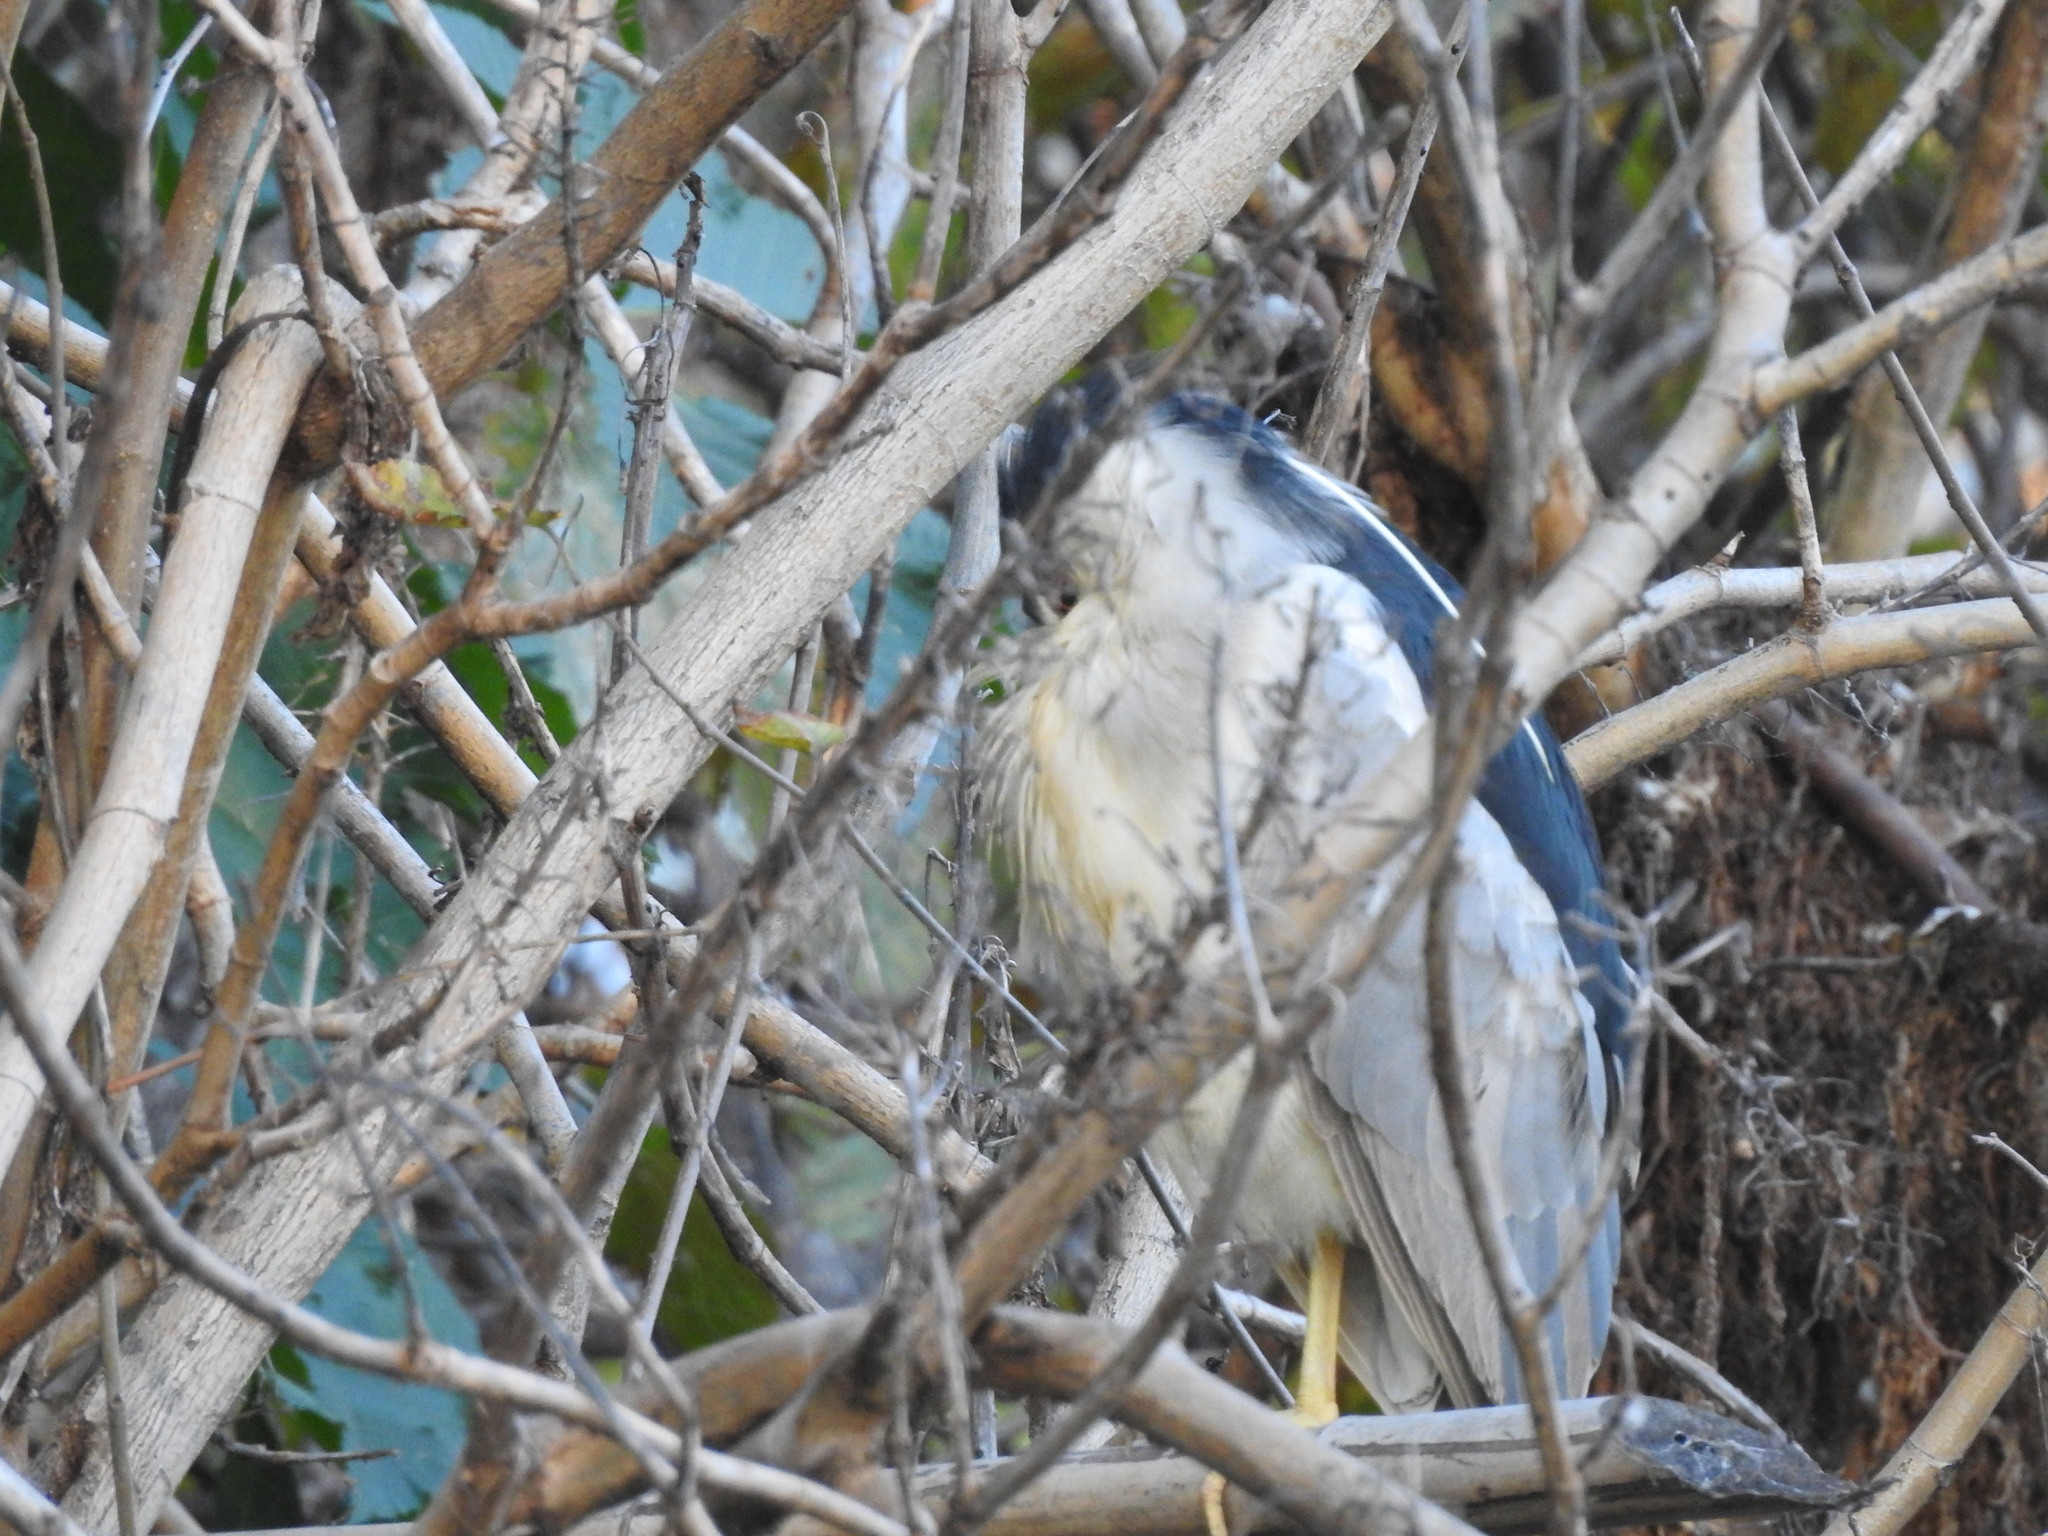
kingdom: Animalia
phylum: Chordata
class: Aves
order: Pelecaniformes
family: Ardeidae
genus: Nycticorax
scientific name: Nycticorax nycticorax
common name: Black-crowned night heron
